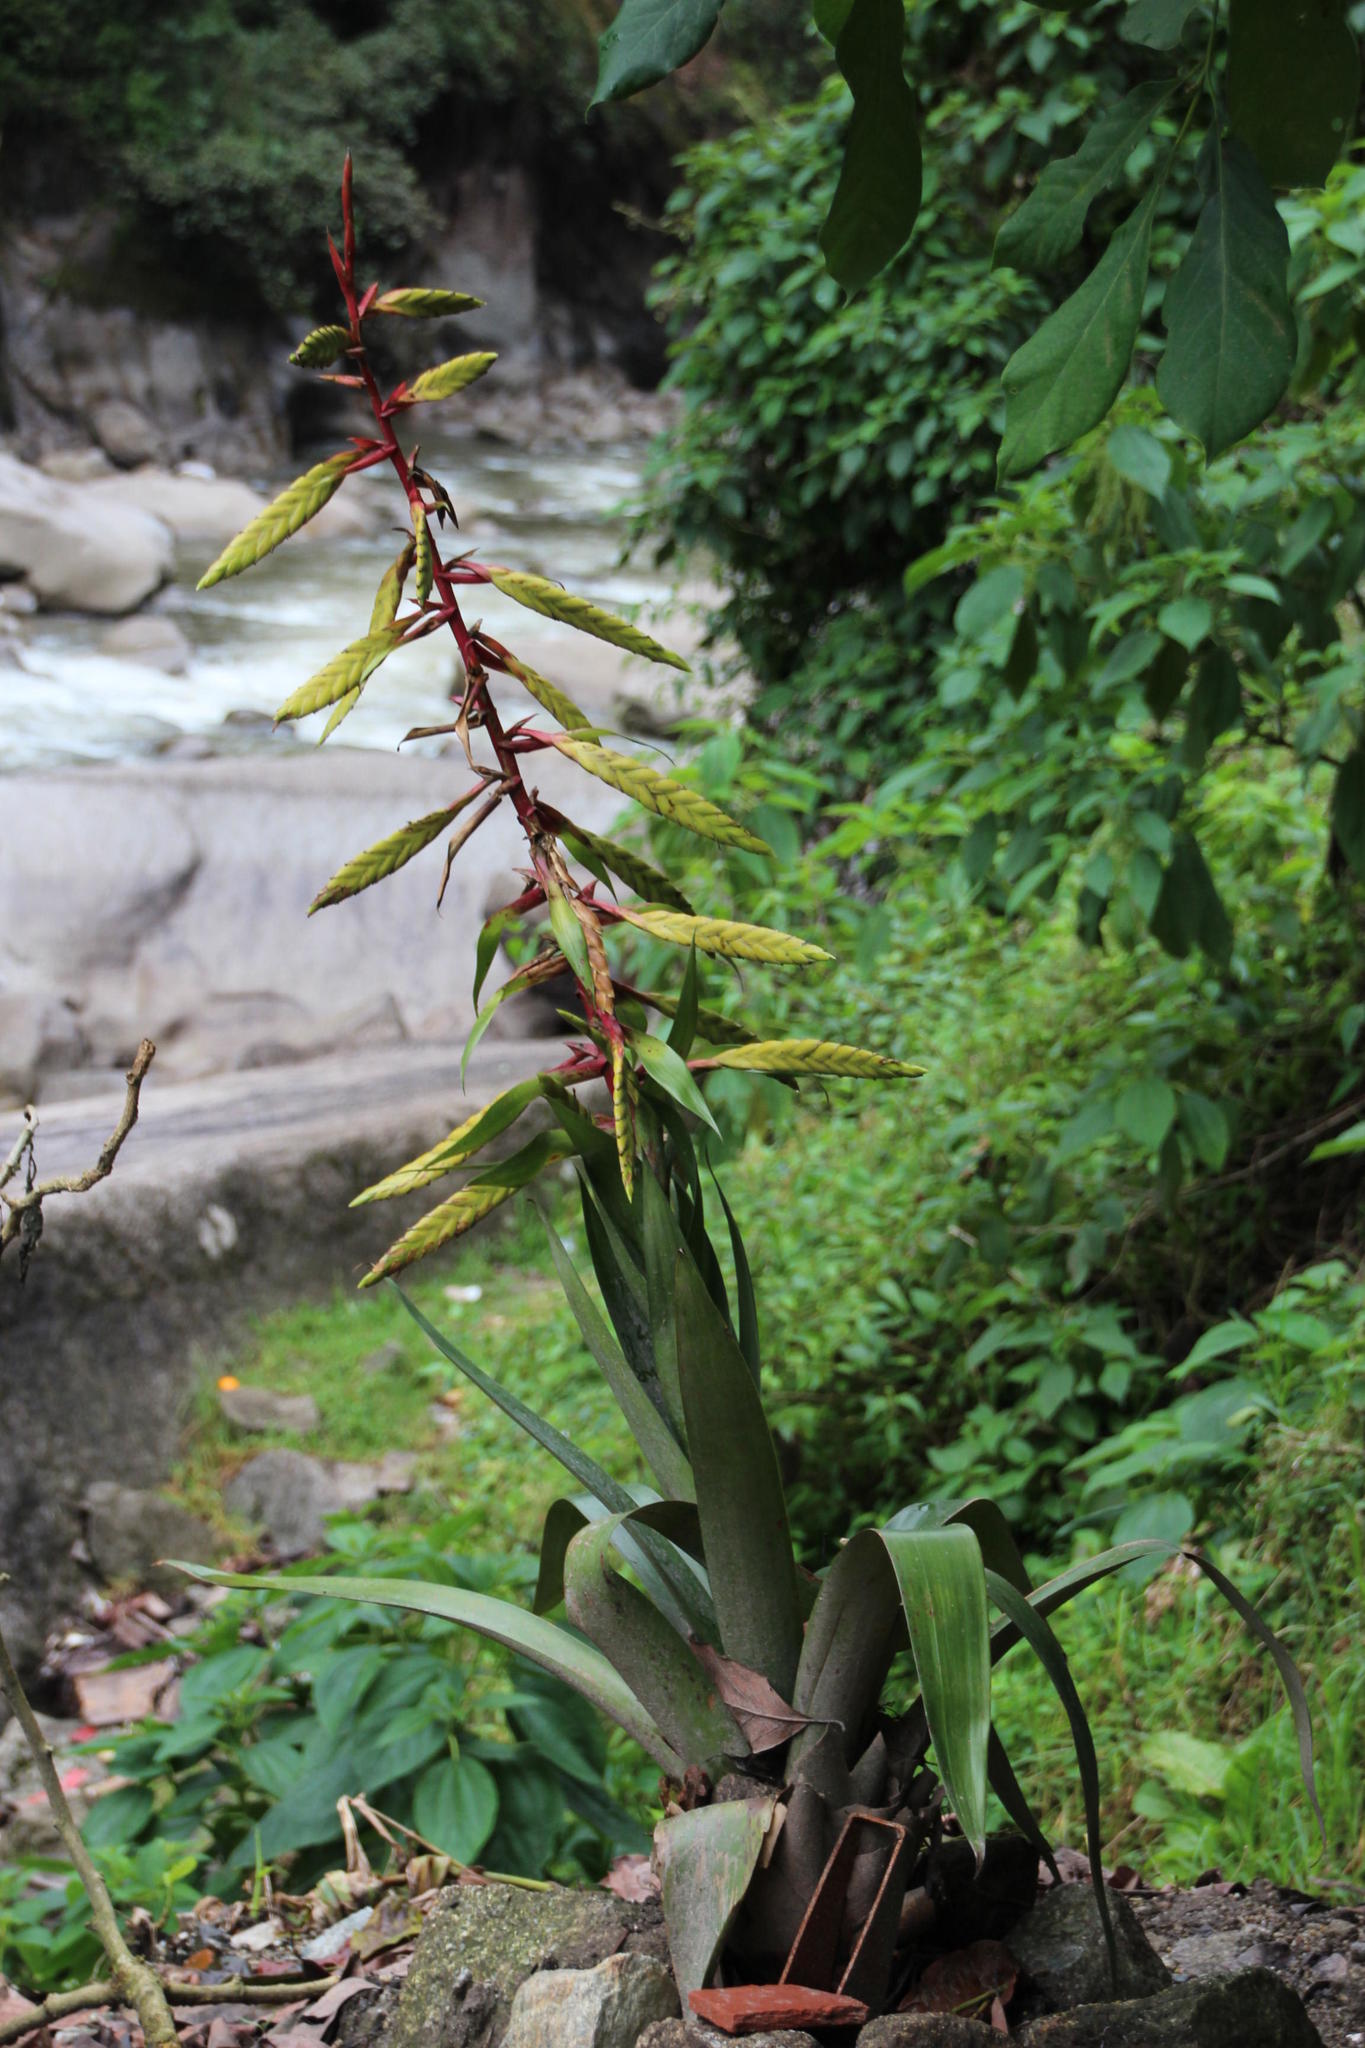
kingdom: Plantae
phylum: Tracheophyta
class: Liliopsida
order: Poales
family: Bromeliaceae
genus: Tillandsia
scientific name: Tillandsia fendleri
